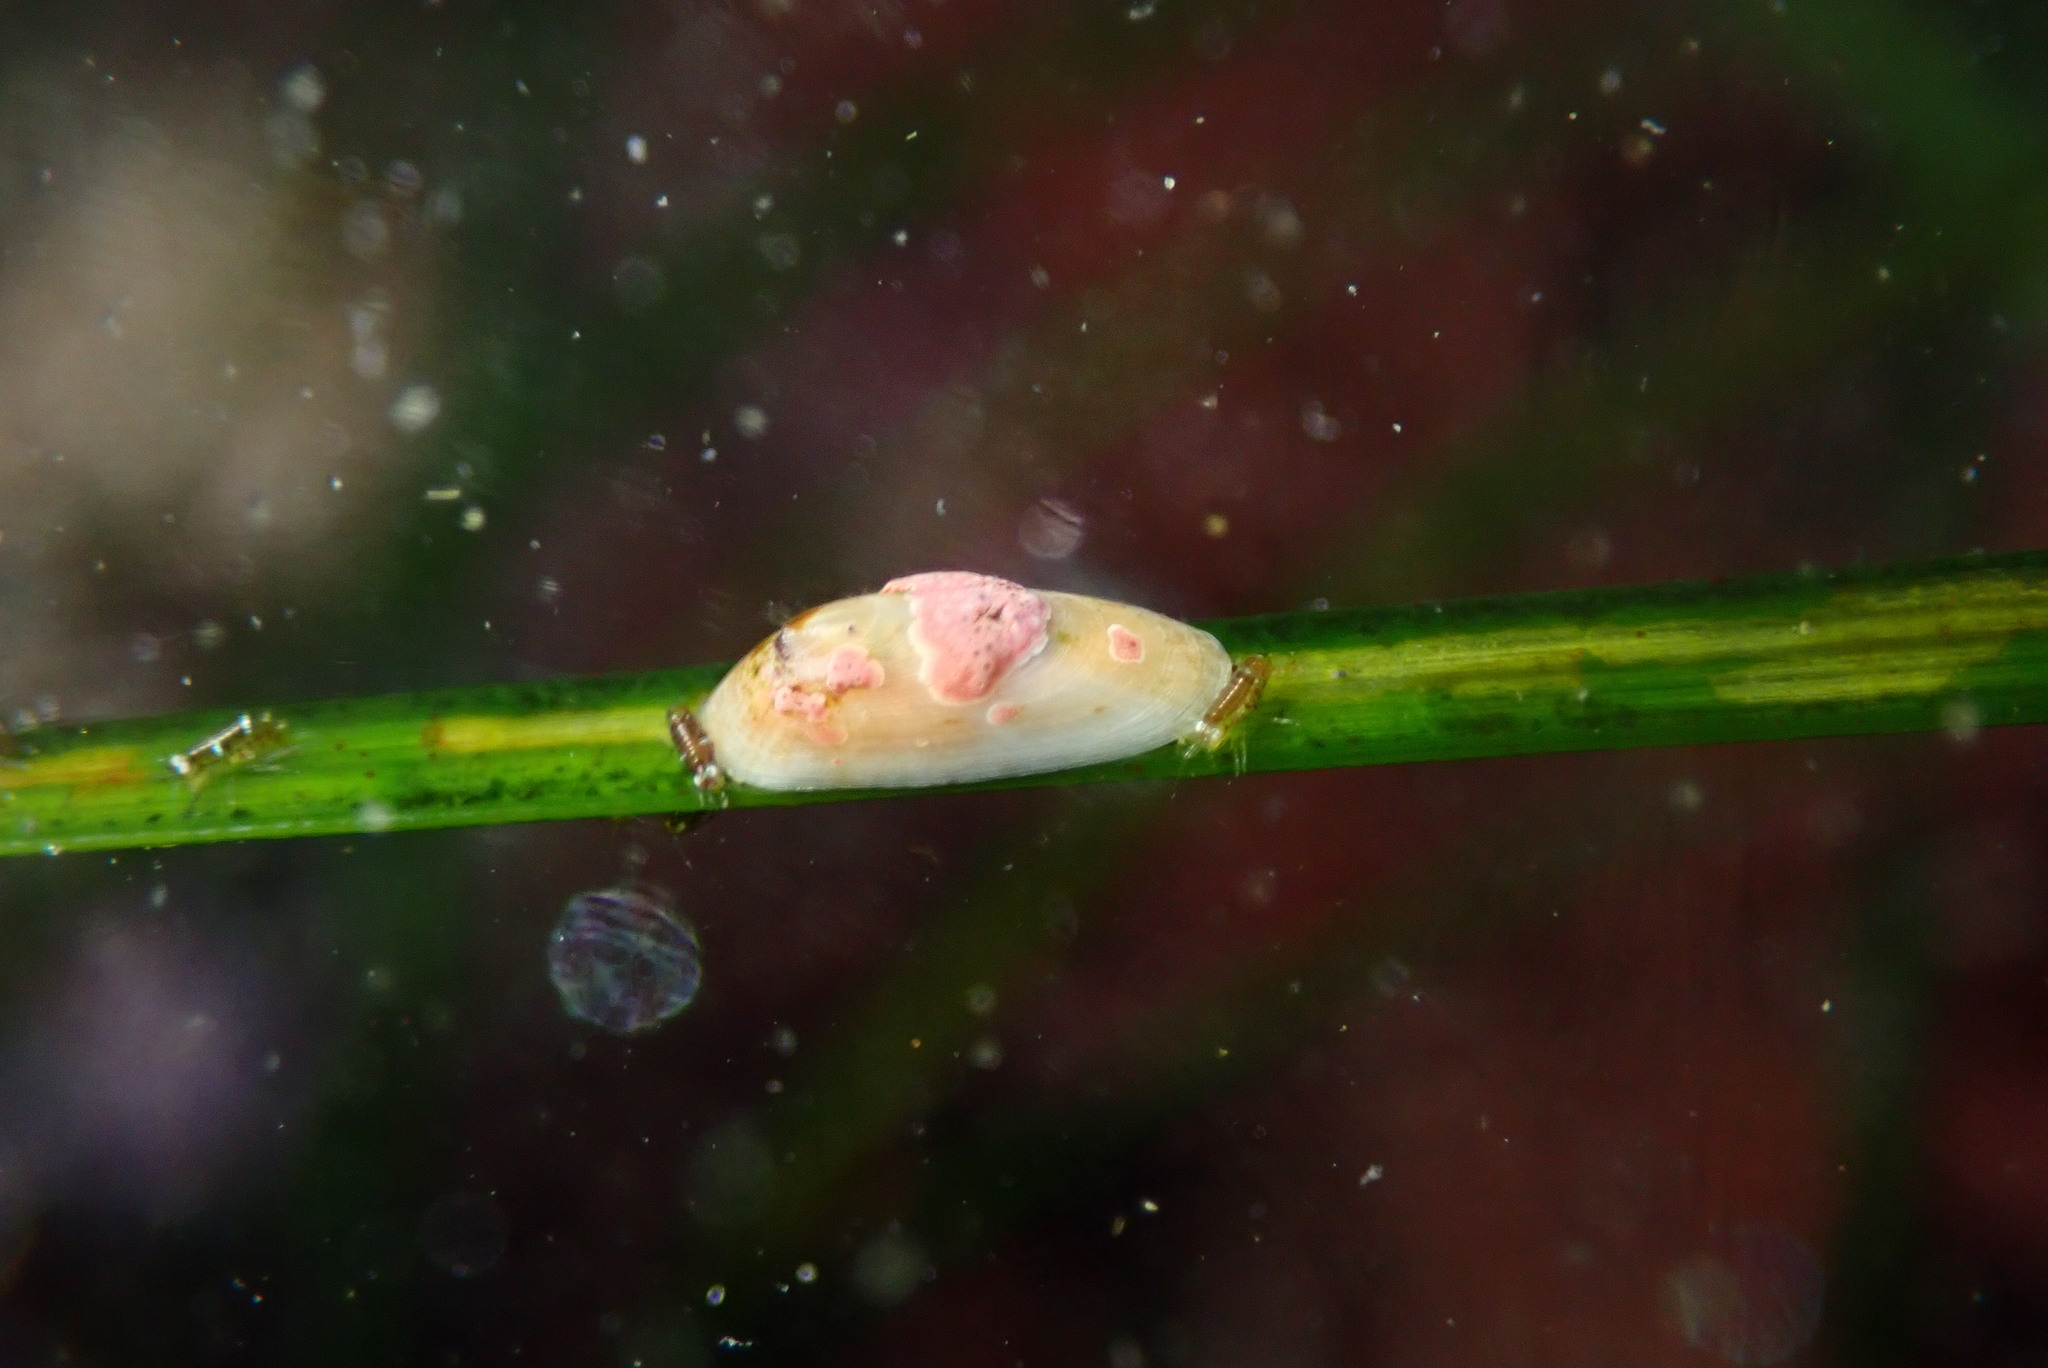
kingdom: Animalia
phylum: Mollusca
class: Gastropoda
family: Lottiidae
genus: Tectura
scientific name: Tectura paleacea
